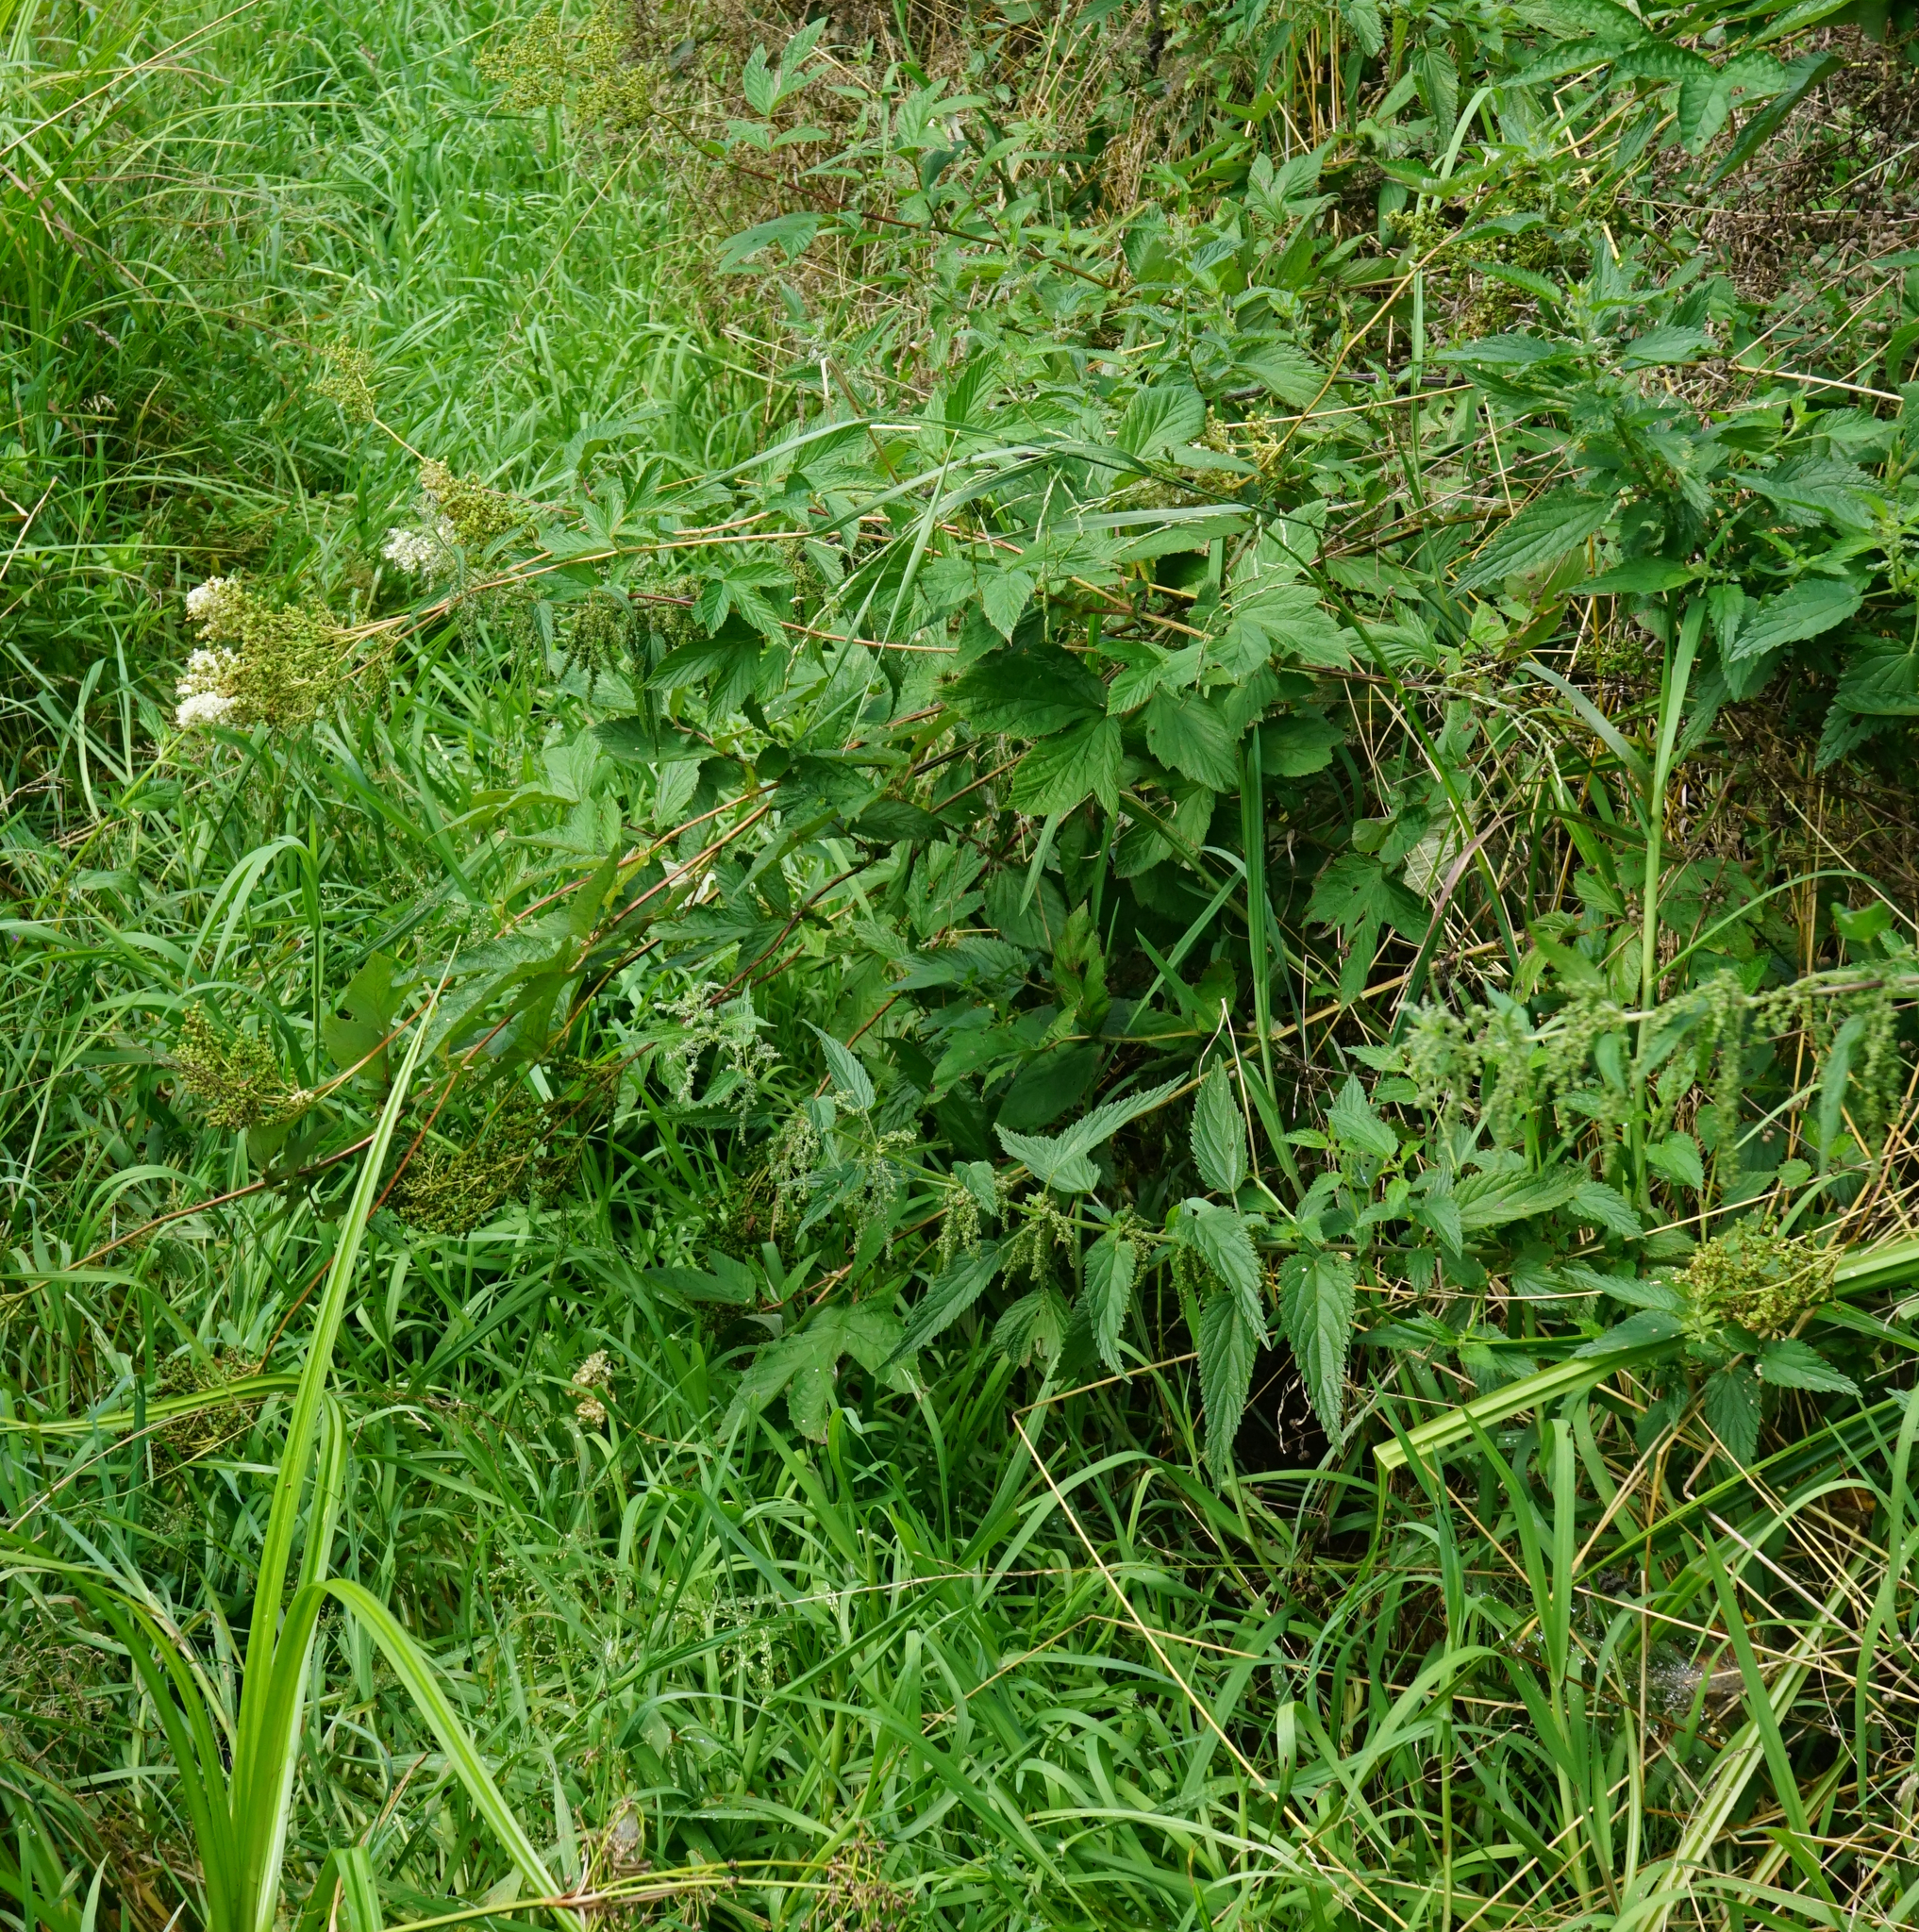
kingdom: Plantae
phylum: Tracheophyta
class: Magnoliopsida
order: Rosales
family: Rosaceae
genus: Filipendula
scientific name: Filipendula ulmaria
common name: Meadowsweet
